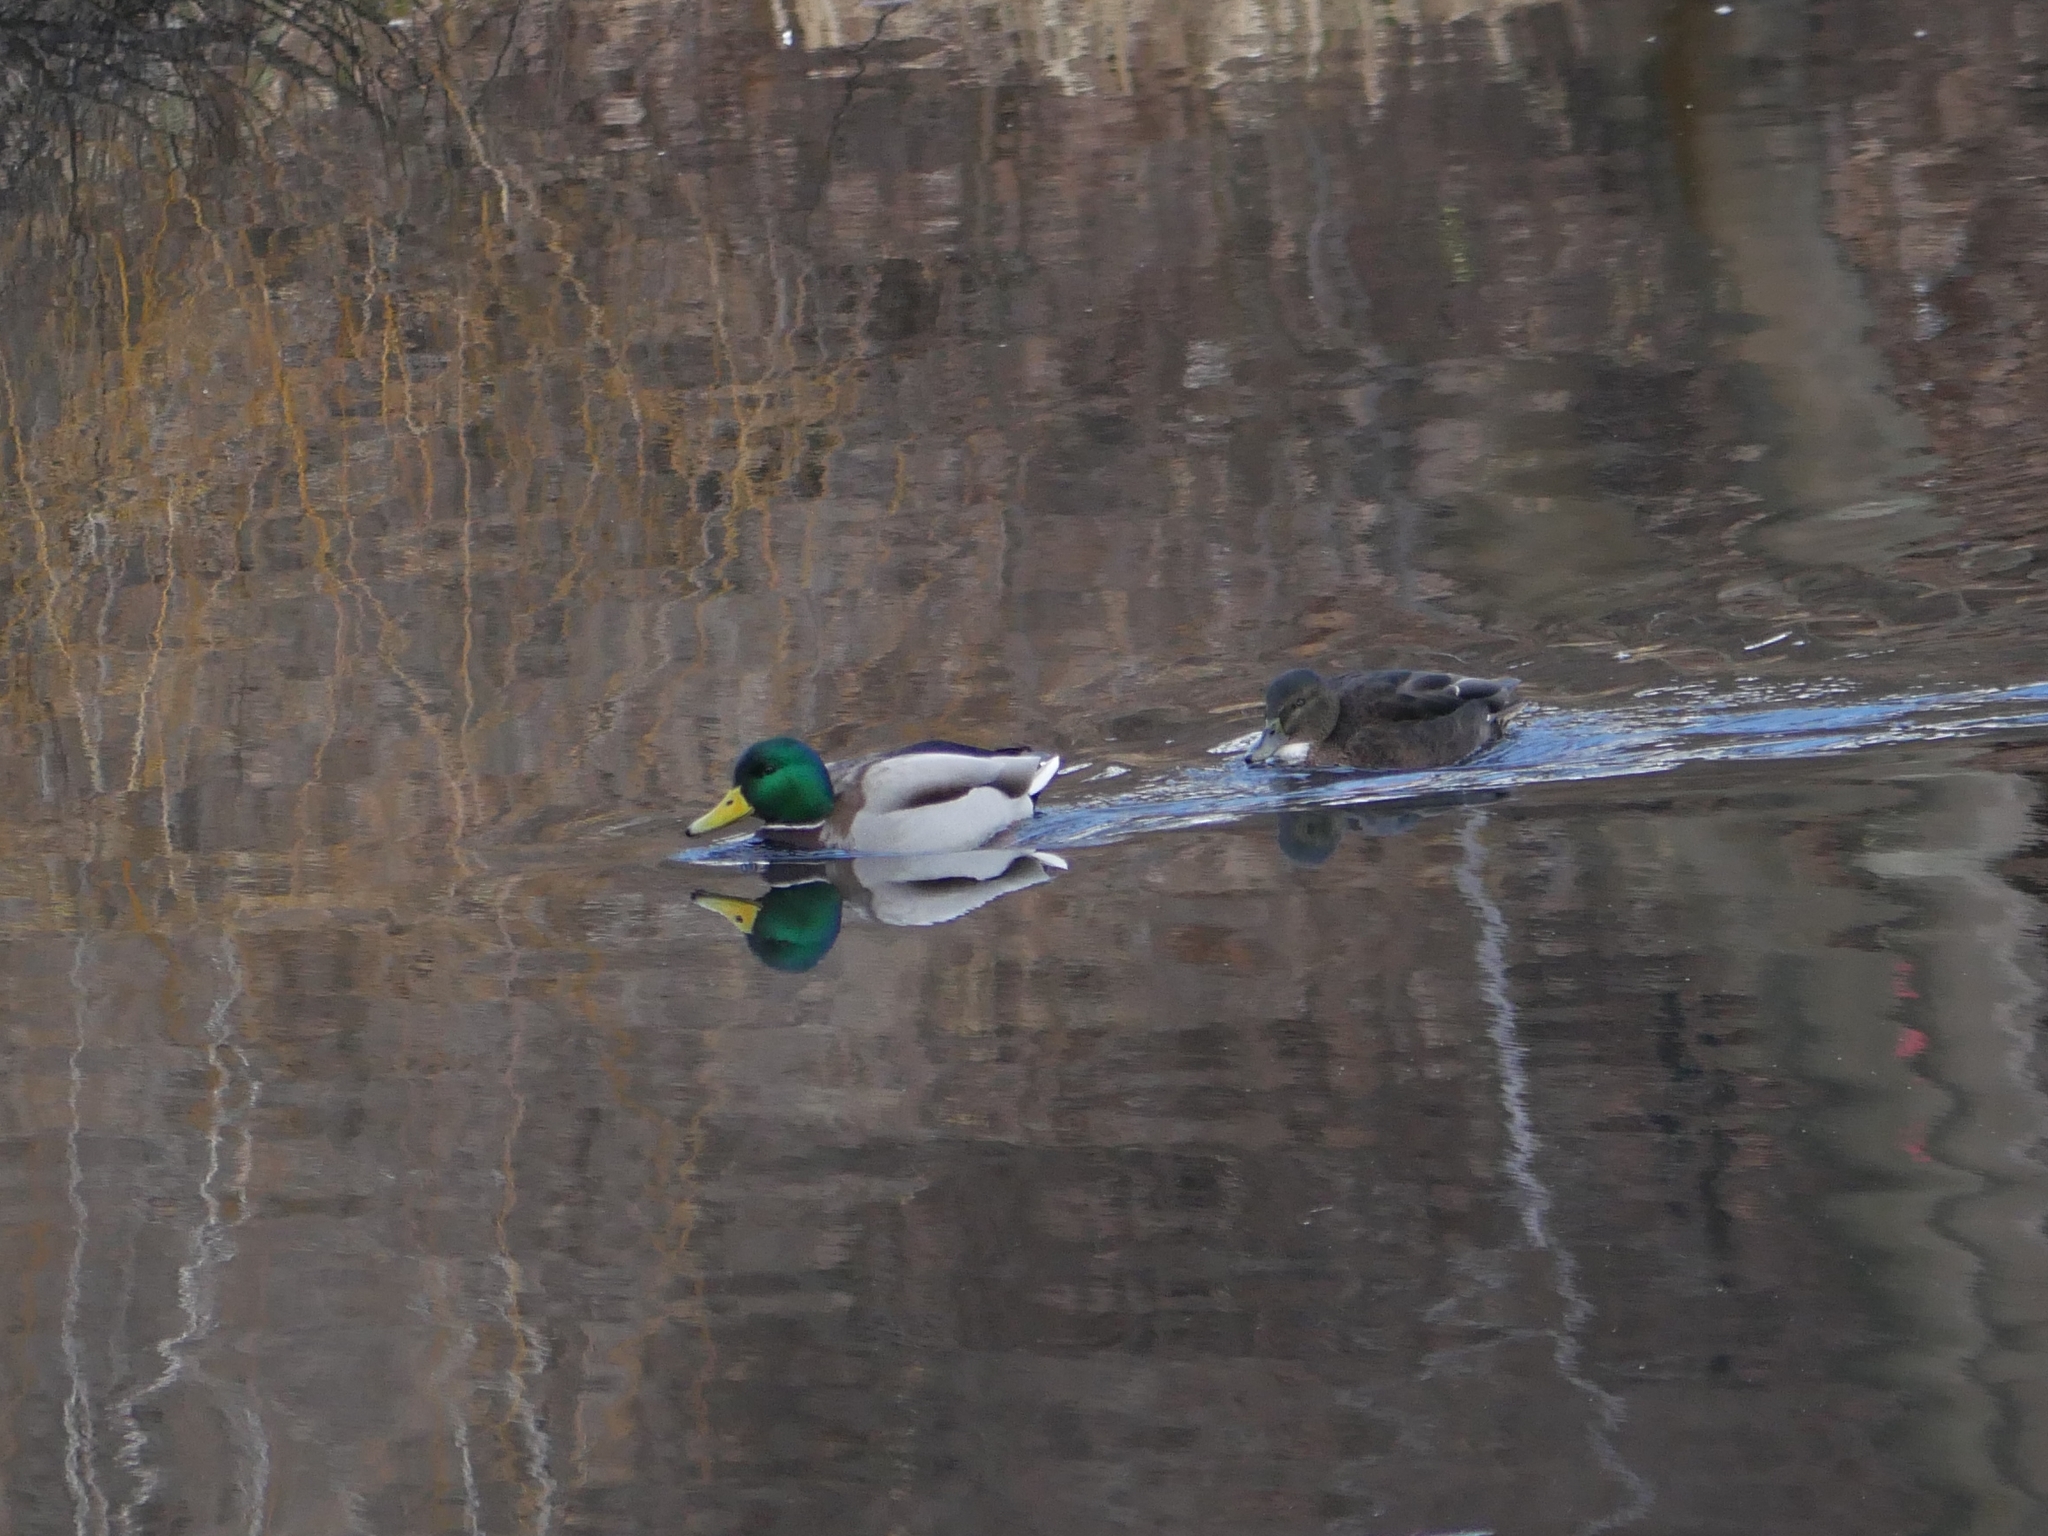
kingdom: Animalia
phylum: Chordata
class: Aves
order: Anseriformes
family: Anatidae
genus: Anas
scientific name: Anas platyrhynchos
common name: Mallard
